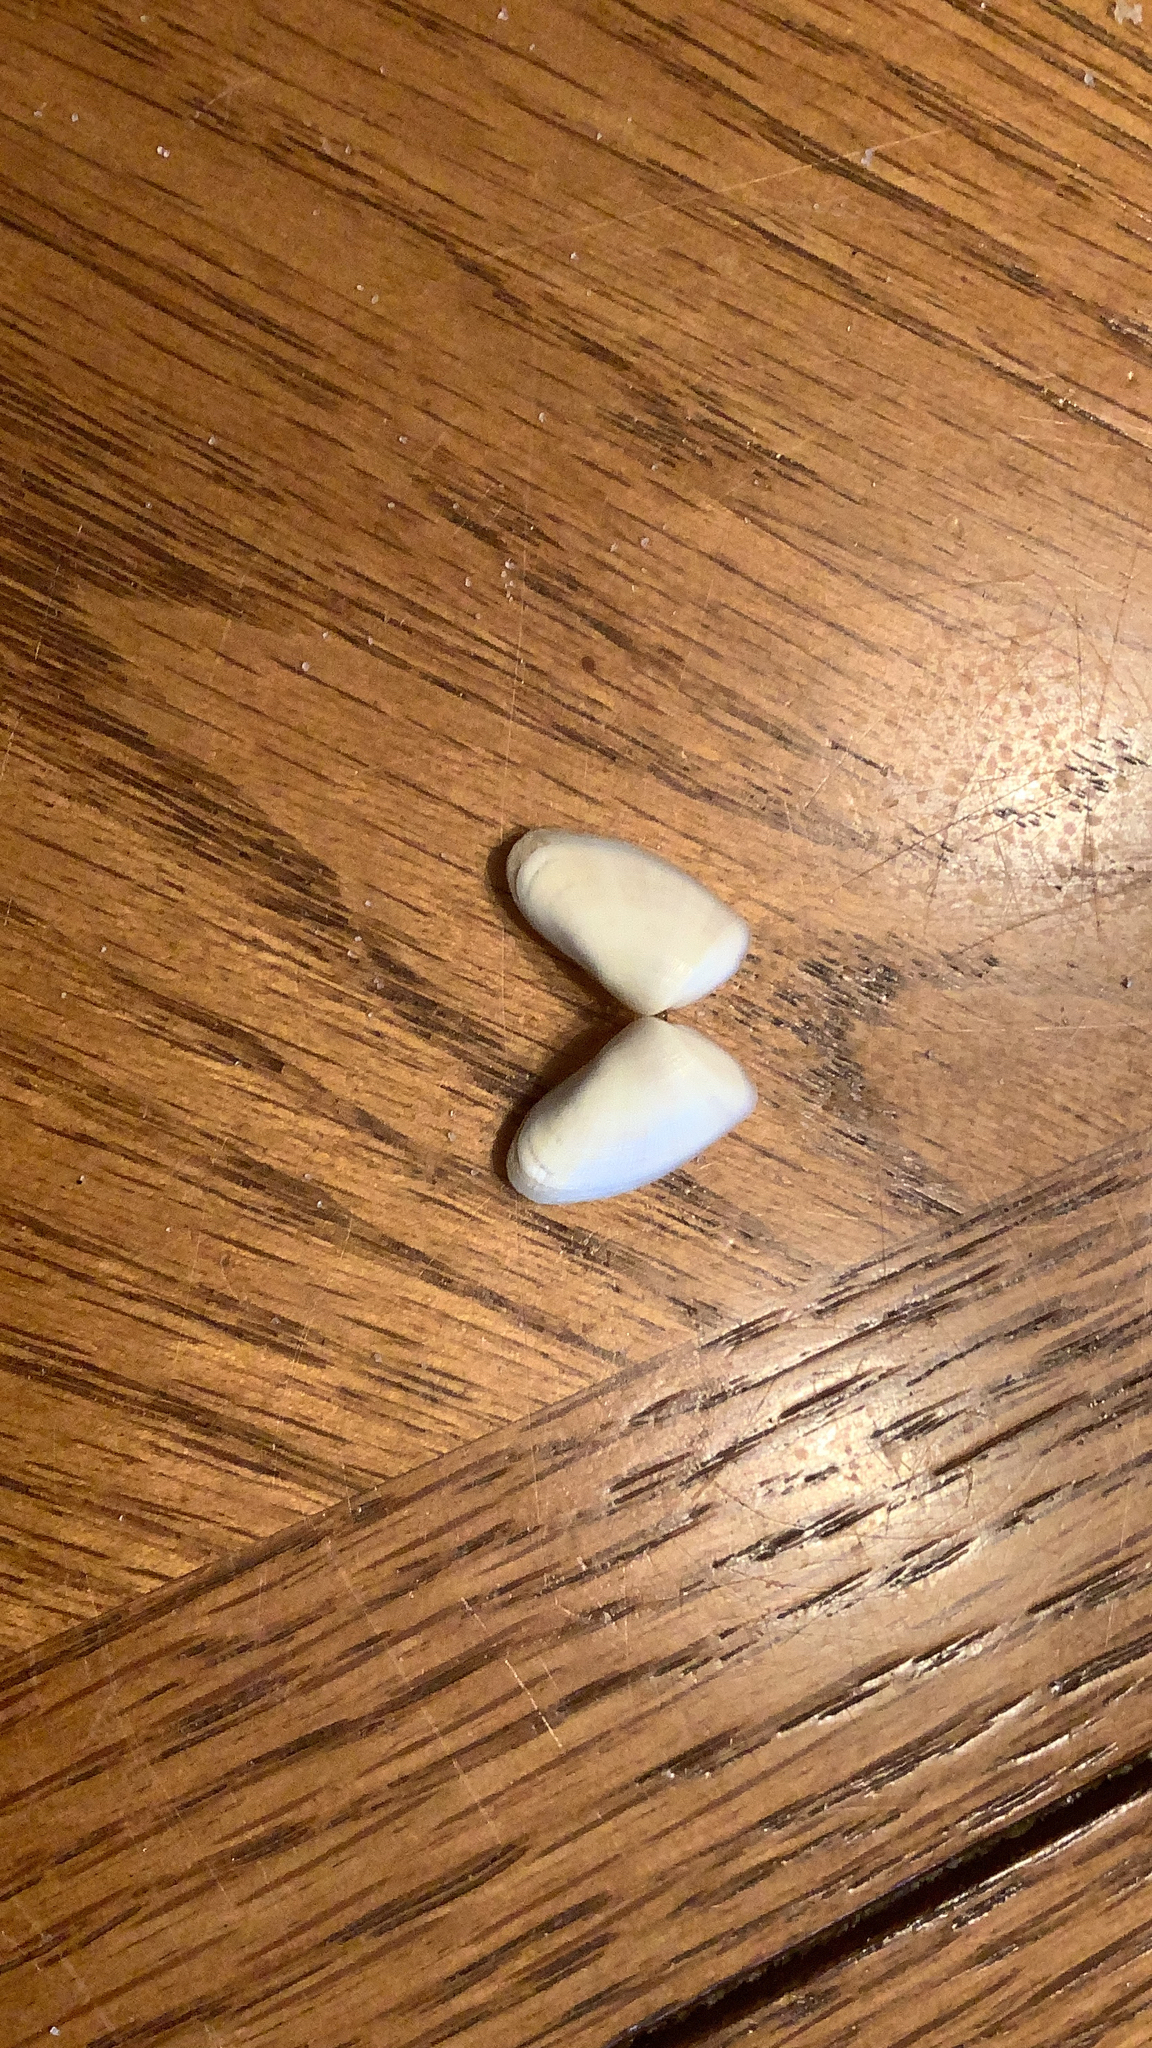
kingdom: Animalia
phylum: Mollusca
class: Bivalvia
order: Cardiida
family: Donacidae
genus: Donax
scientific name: Donax variabilis
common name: Butterfly shell
